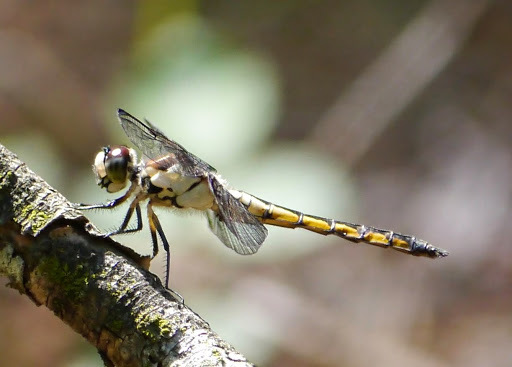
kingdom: Animalia
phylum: Arthropoda
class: Insecta
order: Odonata
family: Libellulidae
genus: Libellula
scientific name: Libellula vibrans
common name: Great blue skimmer
